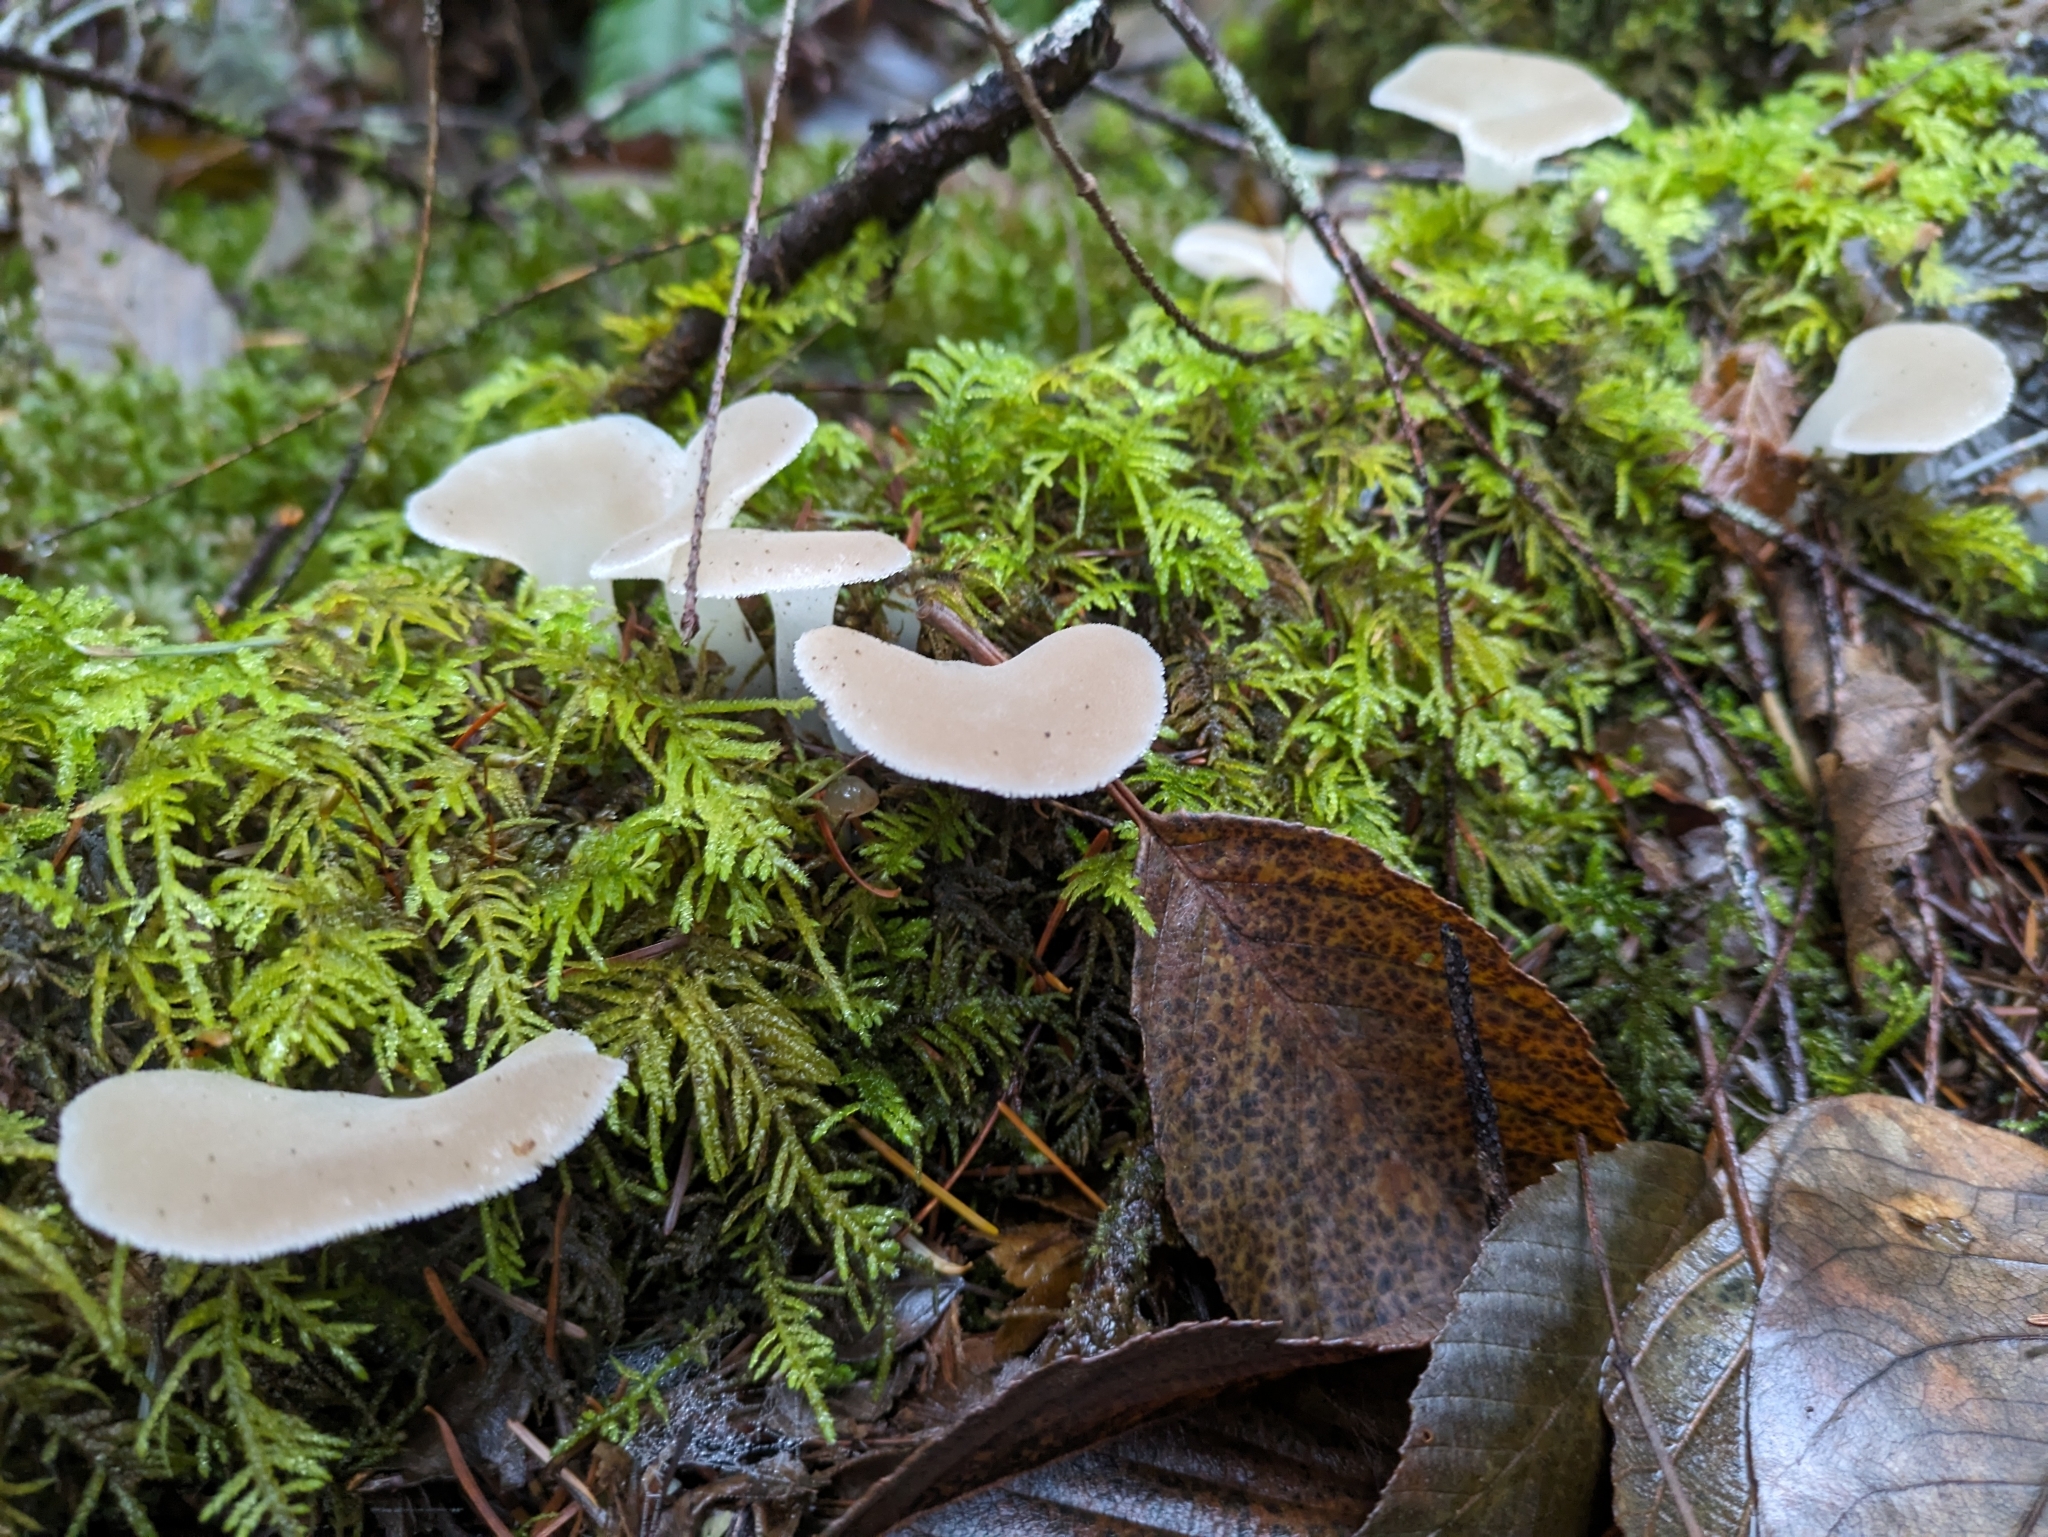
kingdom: Fungi
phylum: Basidiomycota
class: Agaricomycetes
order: Auriculariales
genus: Pseudohydnum
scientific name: Pseudohydnum gelatinosum
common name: Jelly tongue
